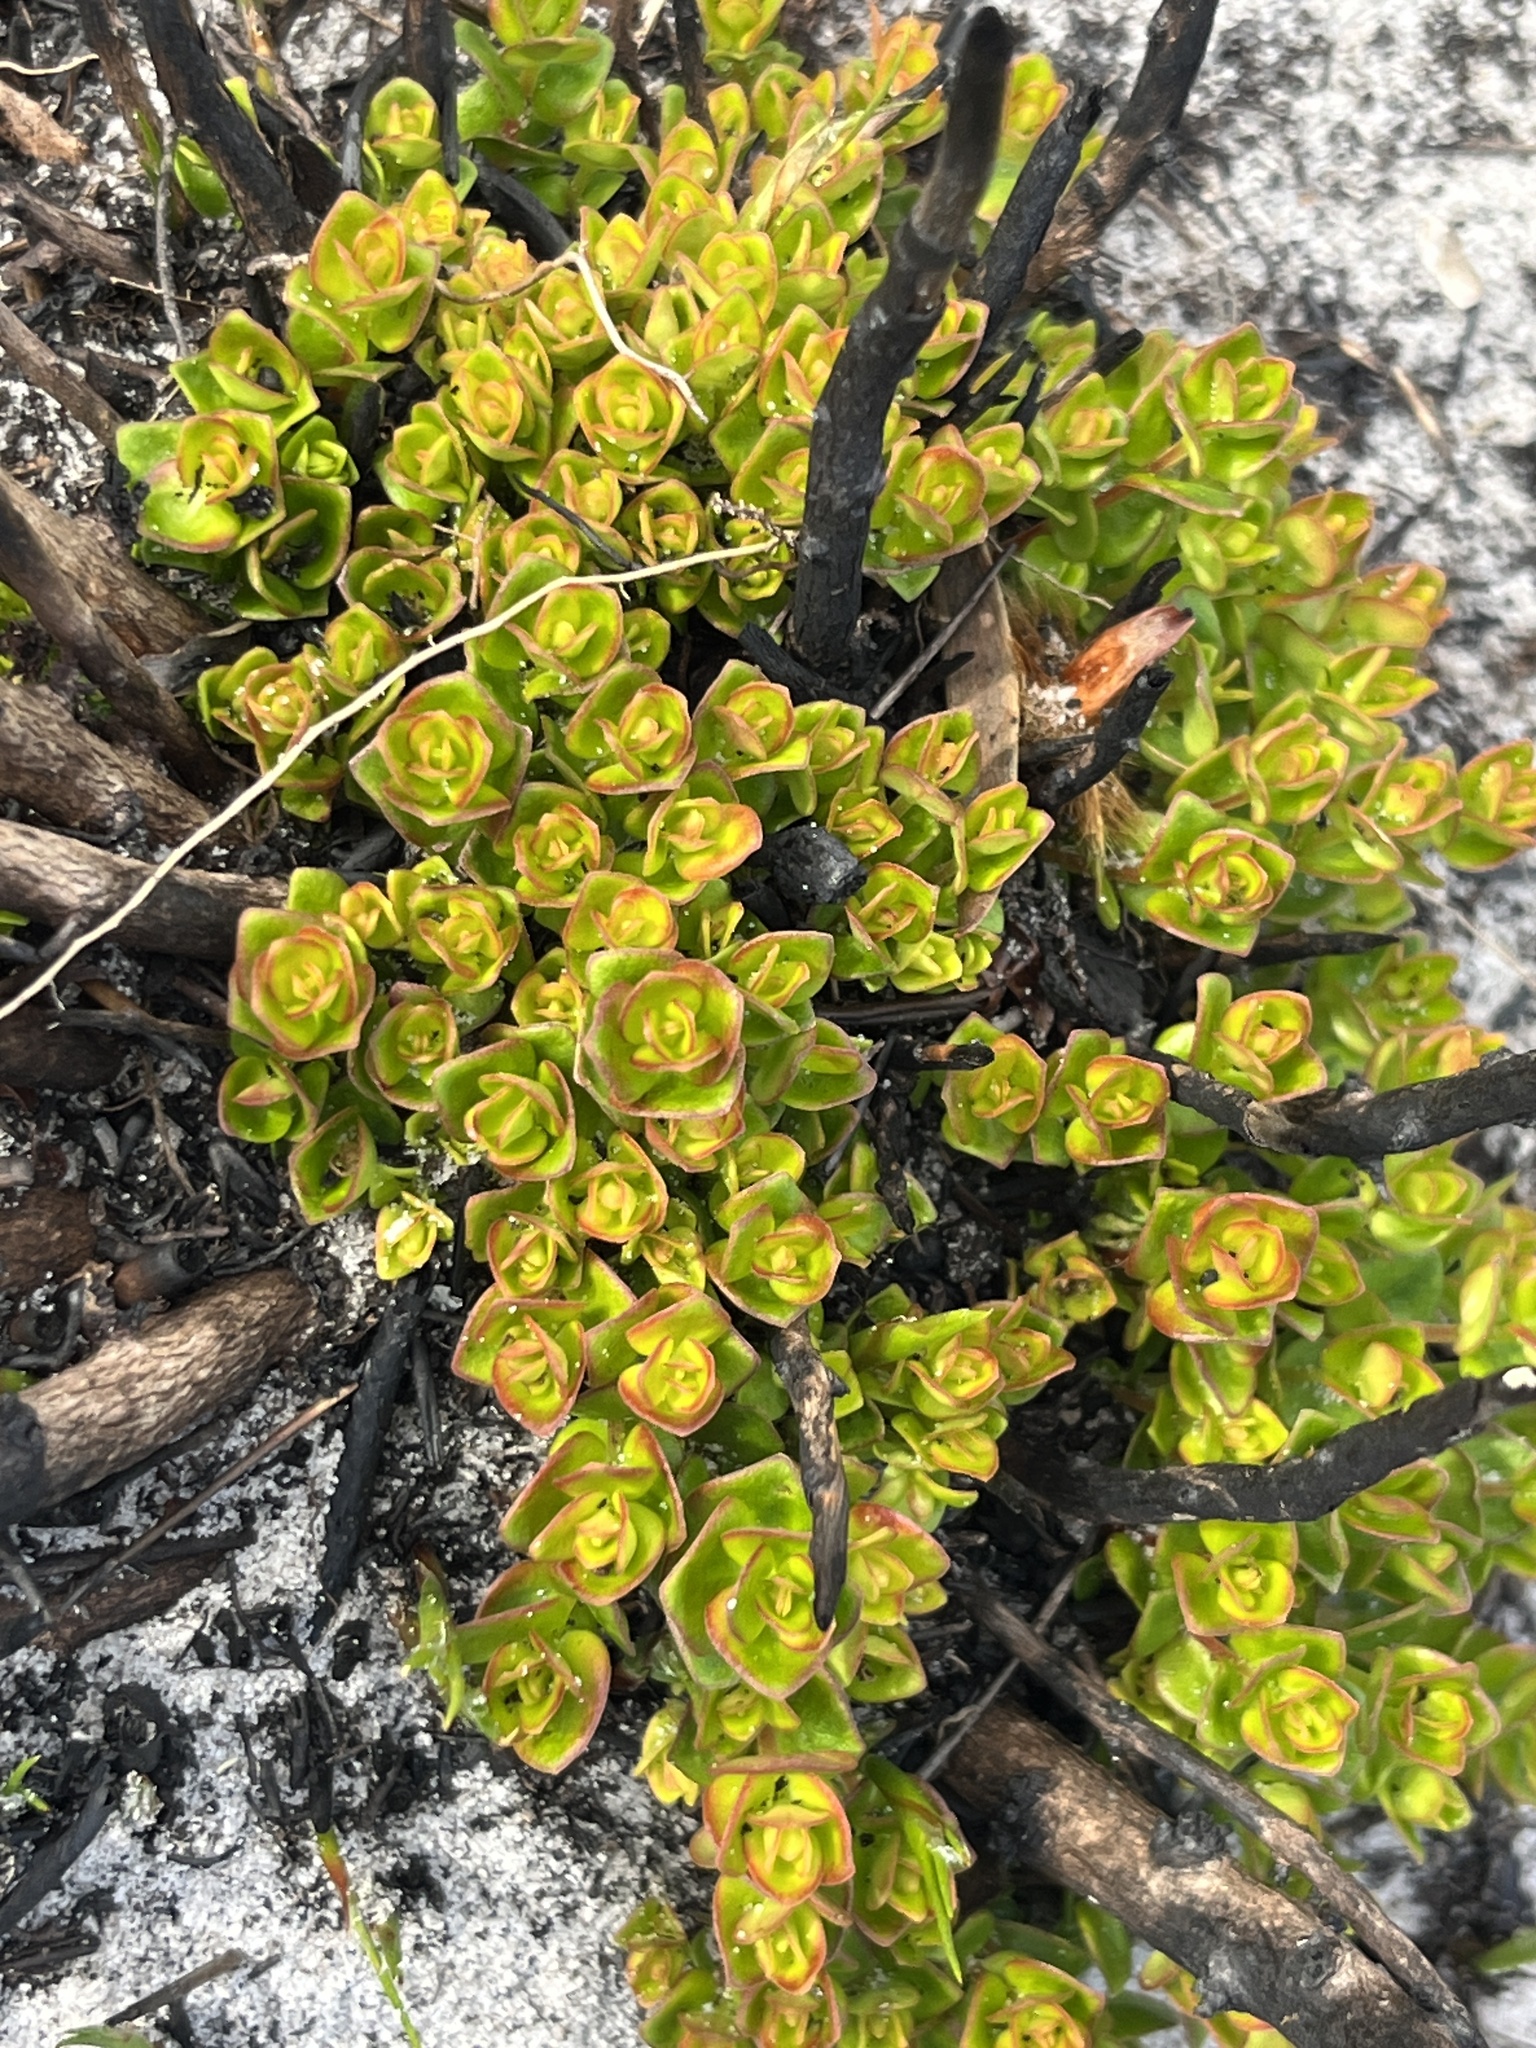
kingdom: Plantae
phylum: Tracheophyta
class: Magnoliopsida
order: Santalales
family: Santalaceae
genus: Osyris
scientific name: Osyris speciosa
